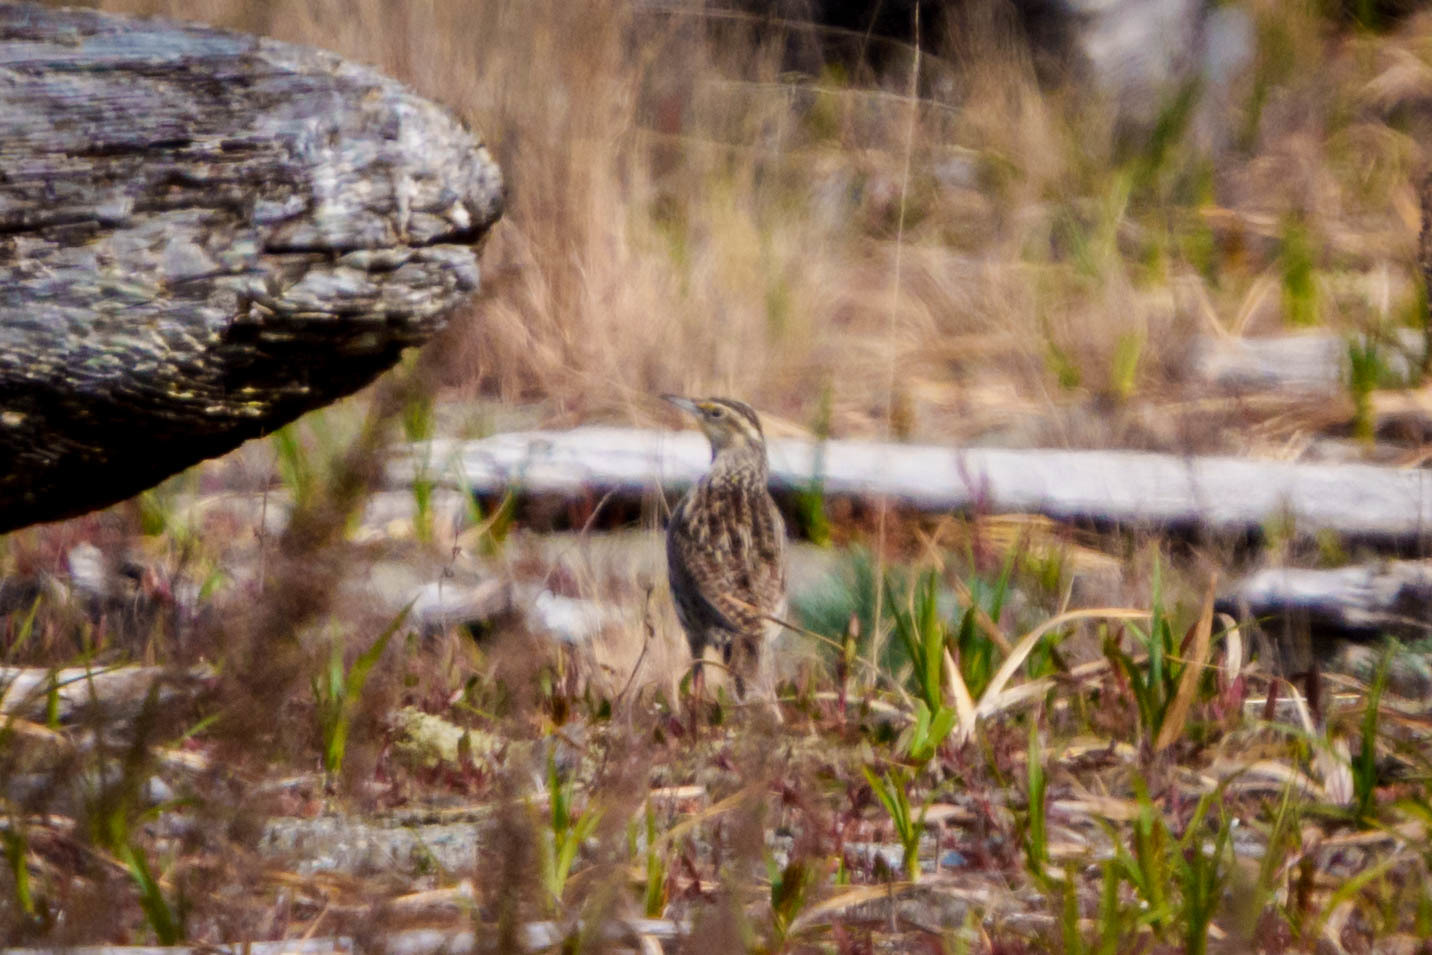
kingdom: Animalia
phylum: Chordata
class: Aves
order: Passeriformes
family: Icteridae
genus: Sturnella
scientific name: Sturnella neglecta
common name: Western meadowlark
